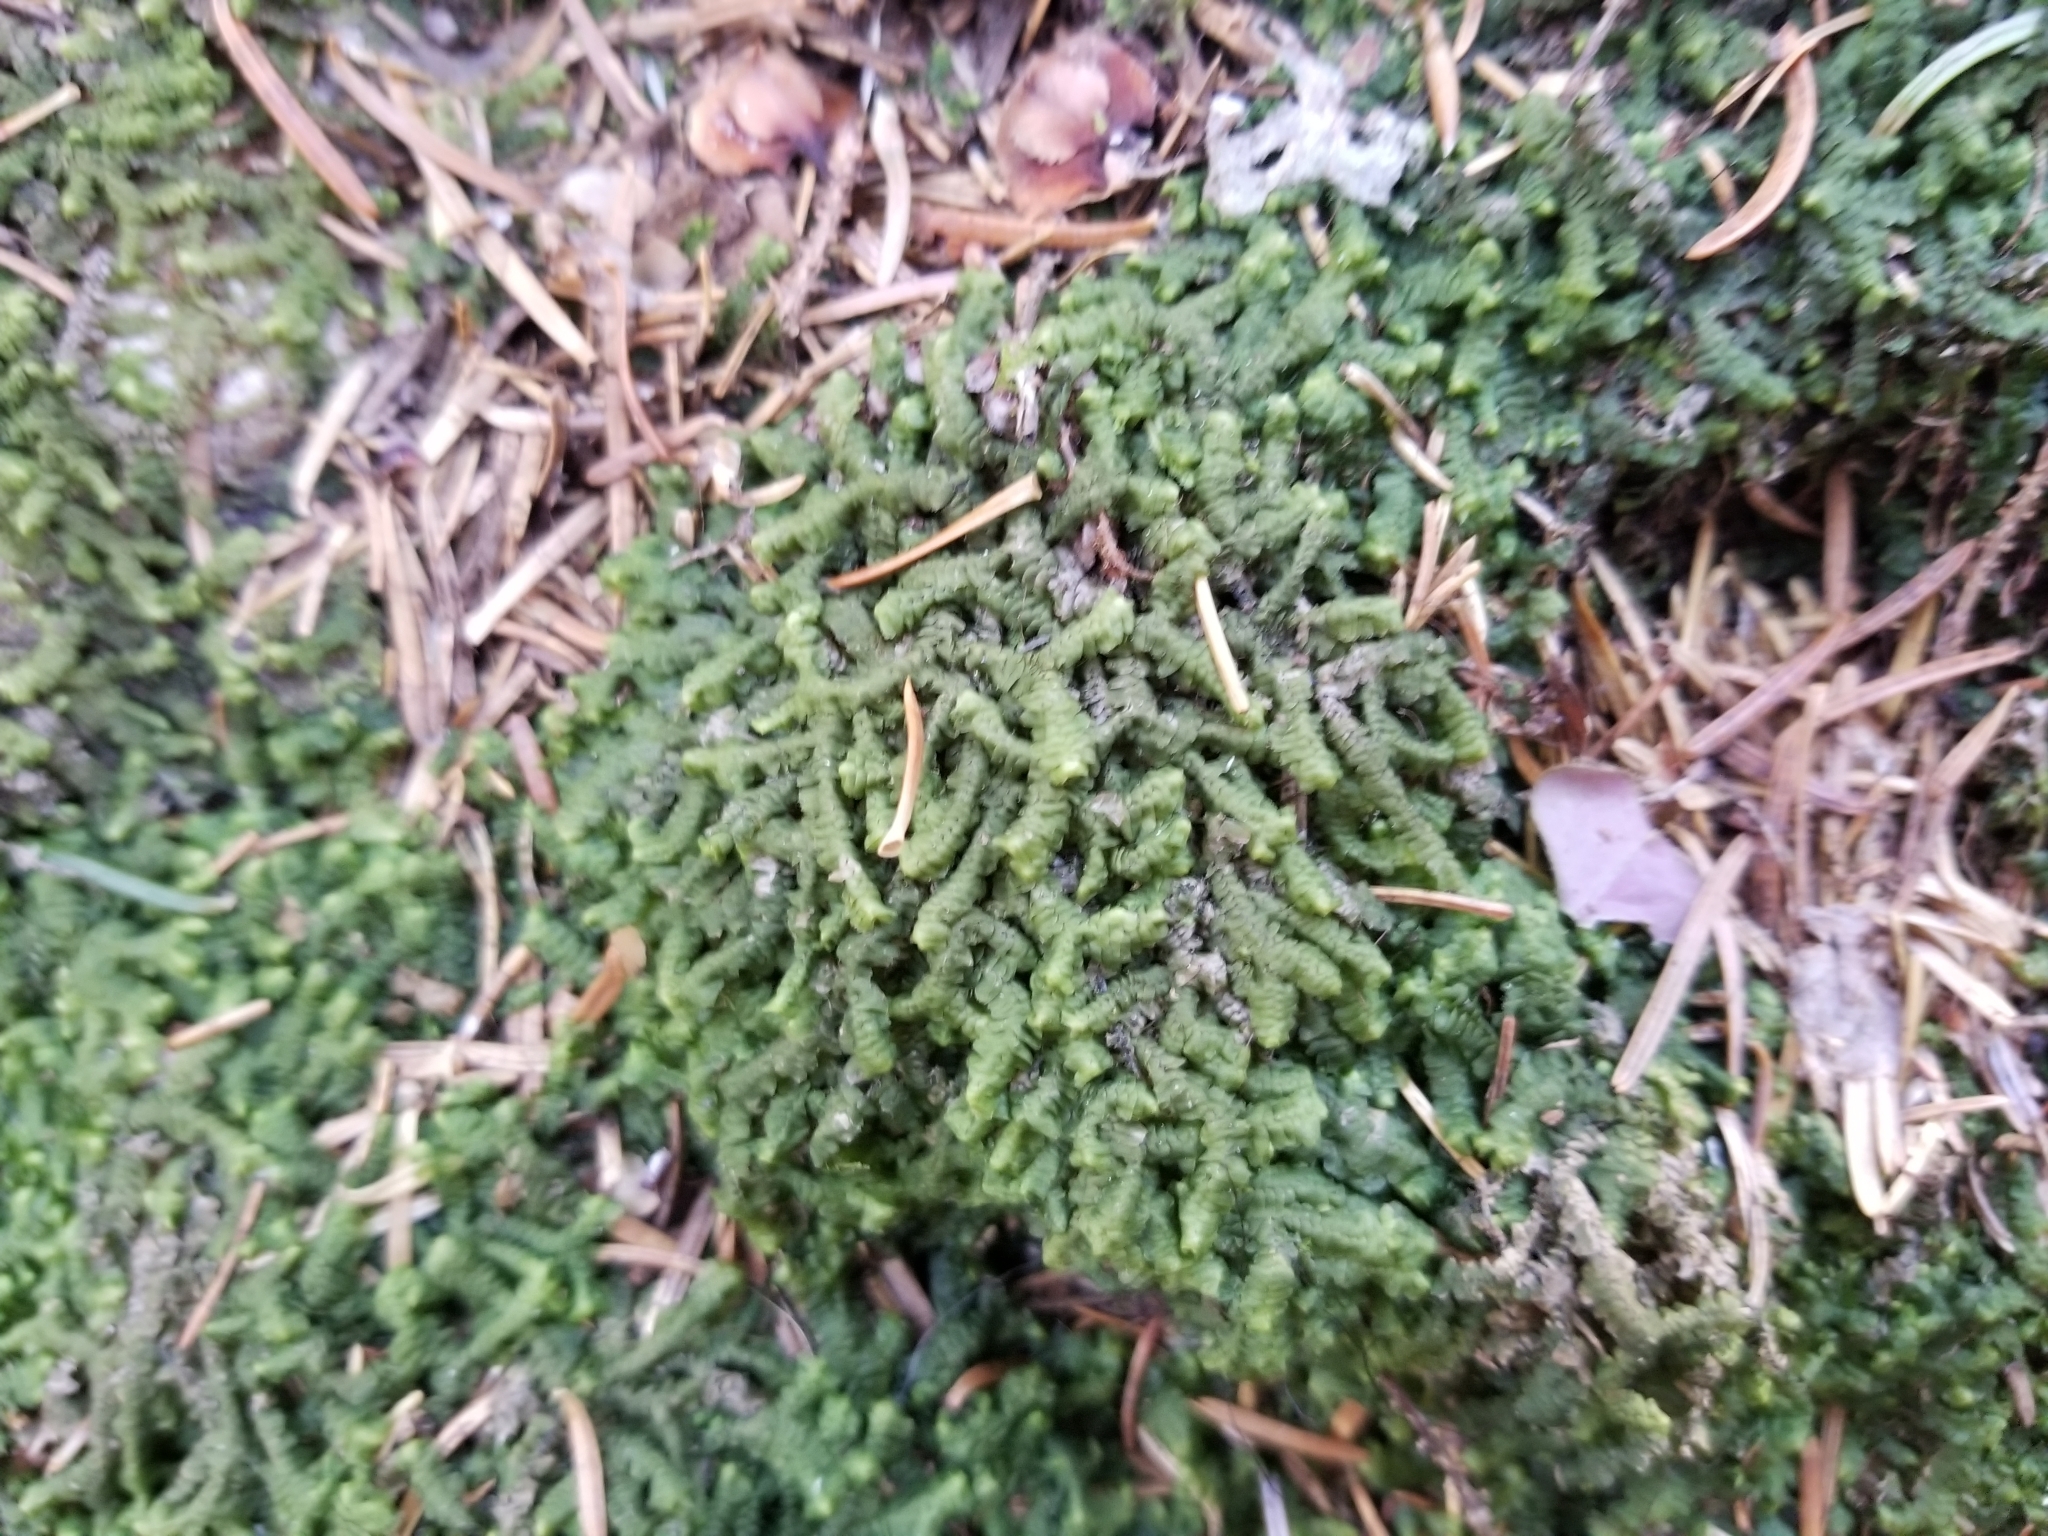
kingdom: Plantae
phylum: Marchantiophyta
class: Jungermanniopsida
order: Jungermanniales
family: Lepidoziaceae
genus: Bazzania
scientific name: Bazzania trilobata
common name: Three-lobed whipwort
